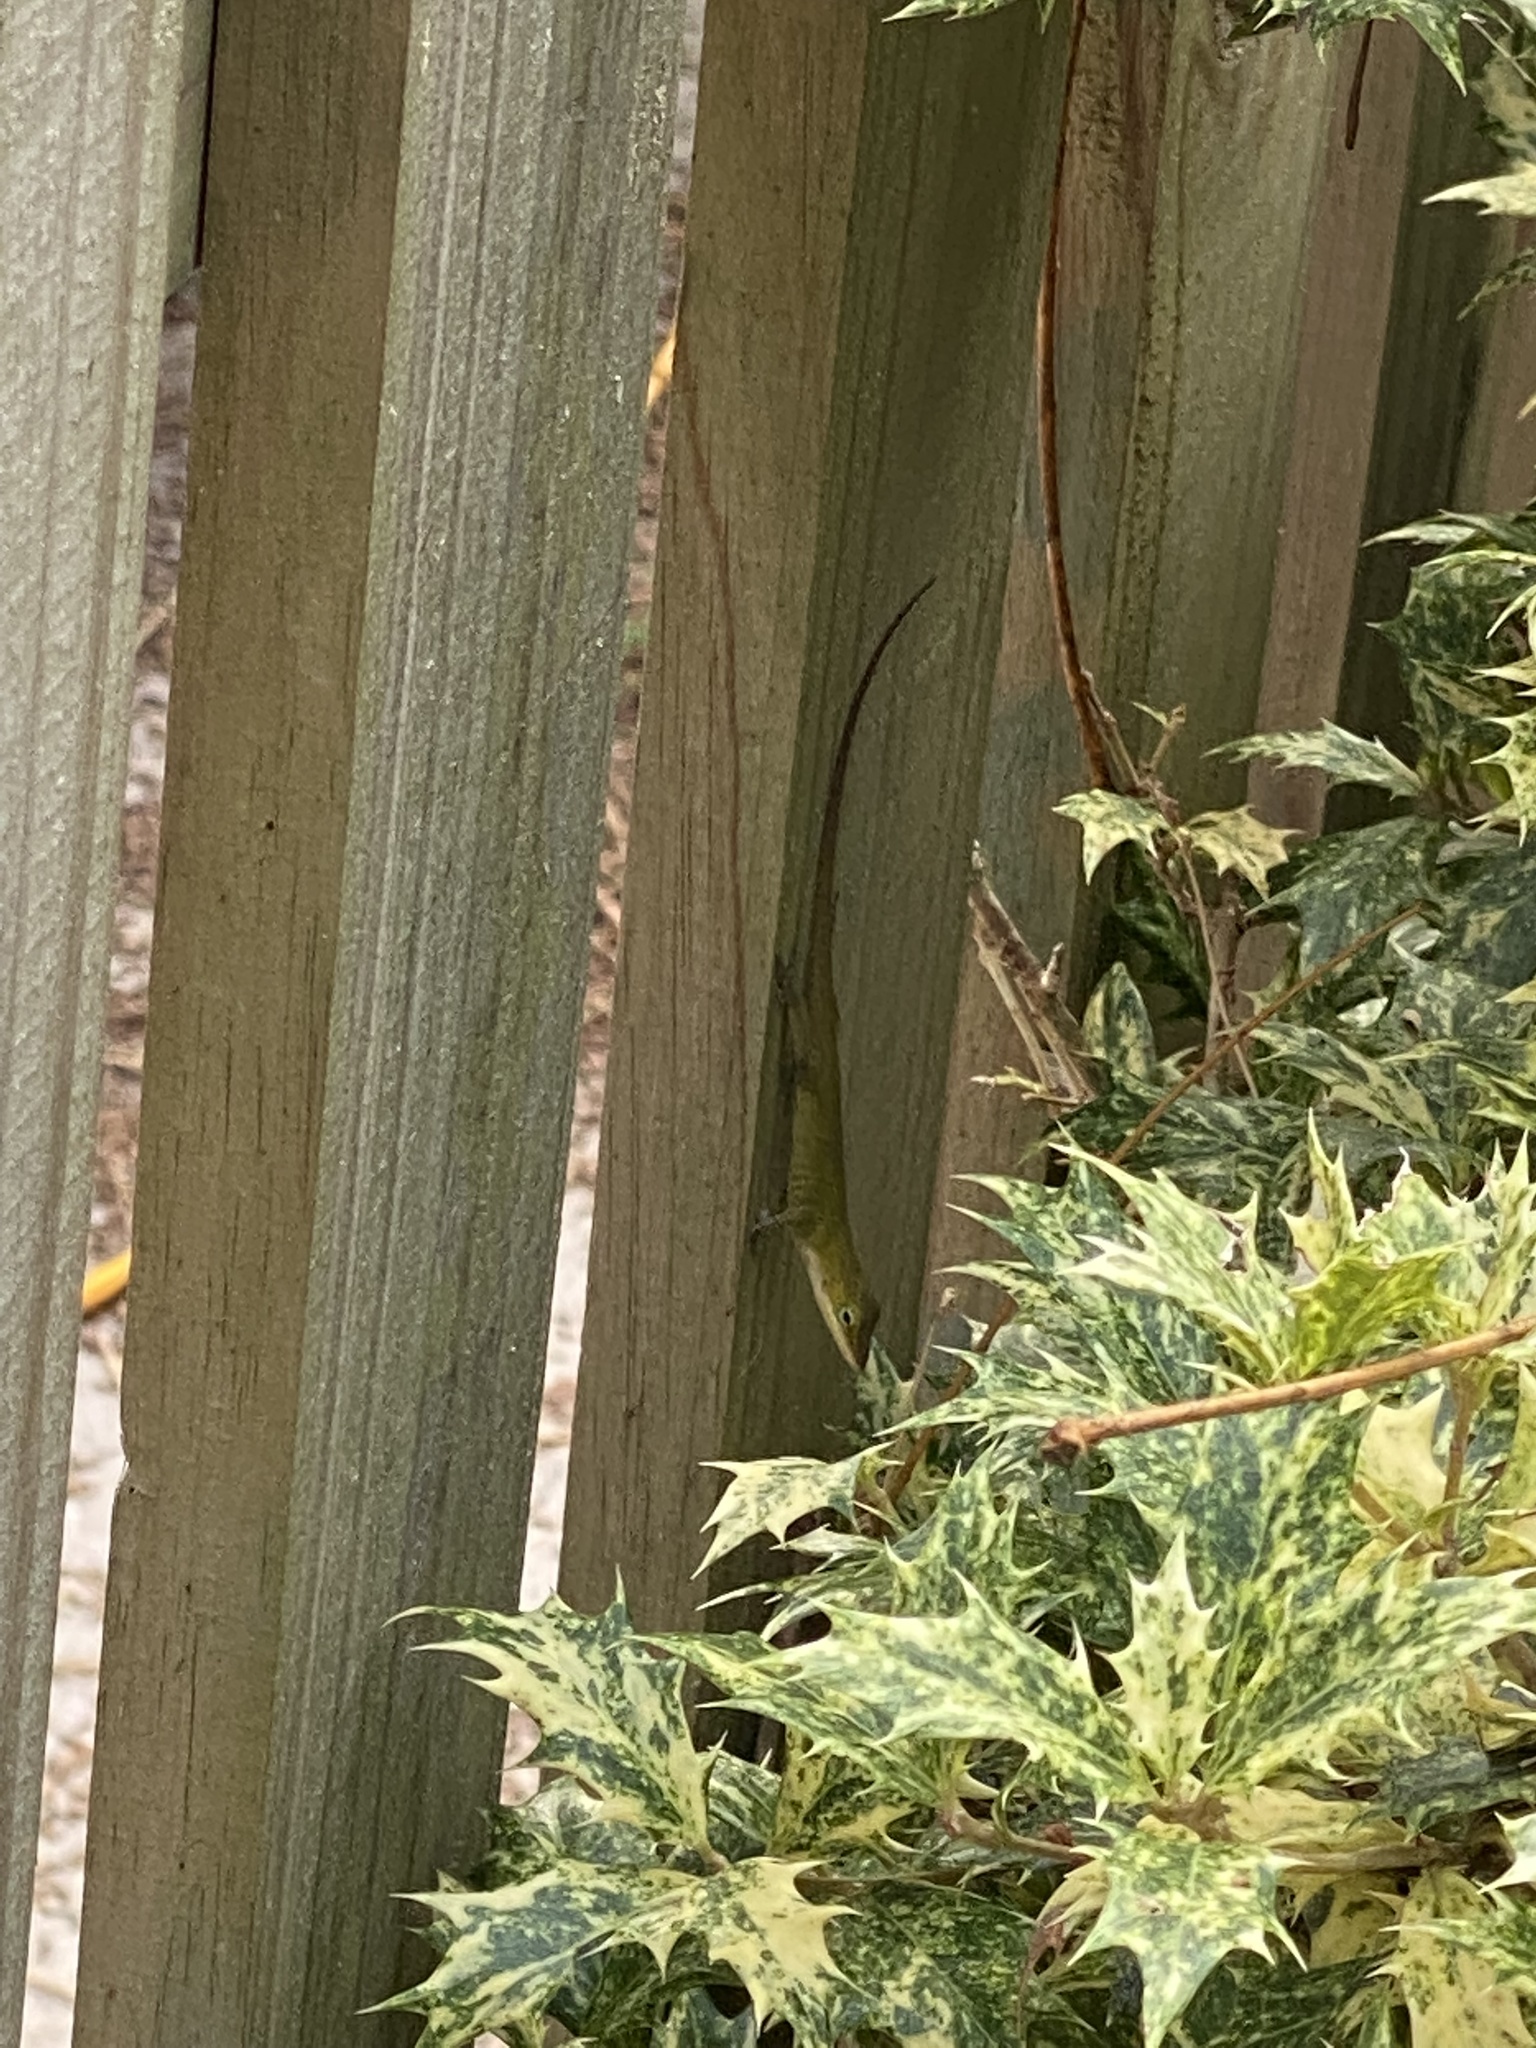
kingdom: Animalia
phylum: Chordata
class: Squamata
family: Dactyloidae
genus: Anolis
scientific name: Anolis carolinensis
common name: Green anole
